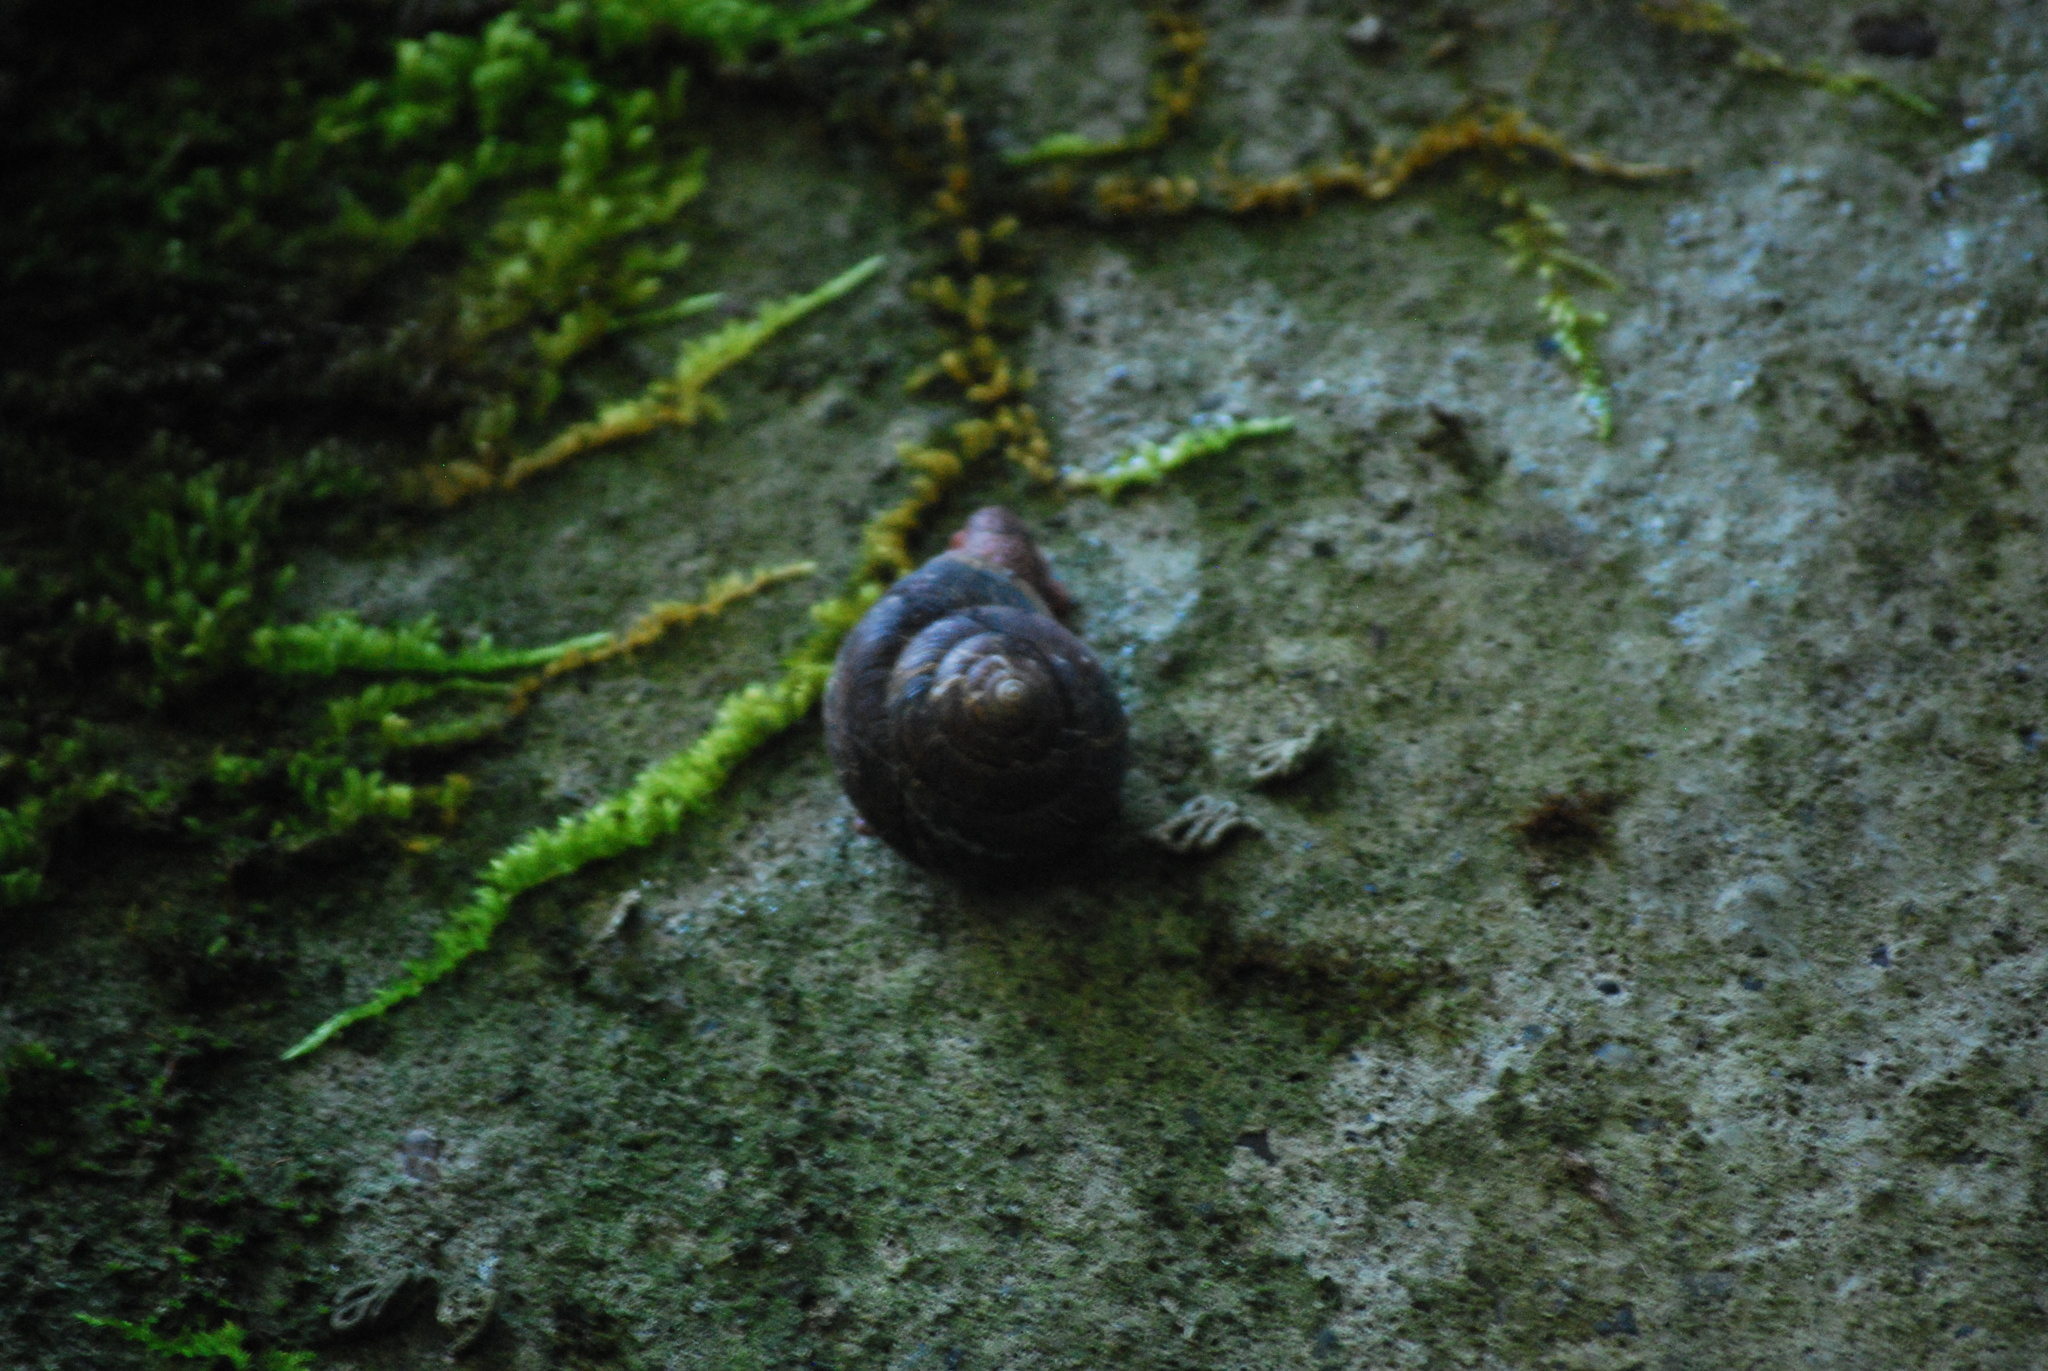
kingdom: Animalia
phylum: Mollusca
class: Gastropoda
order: Stylommatophora
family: Xanthonychidae
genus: Monadenia
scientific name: Monadenia fidelis
